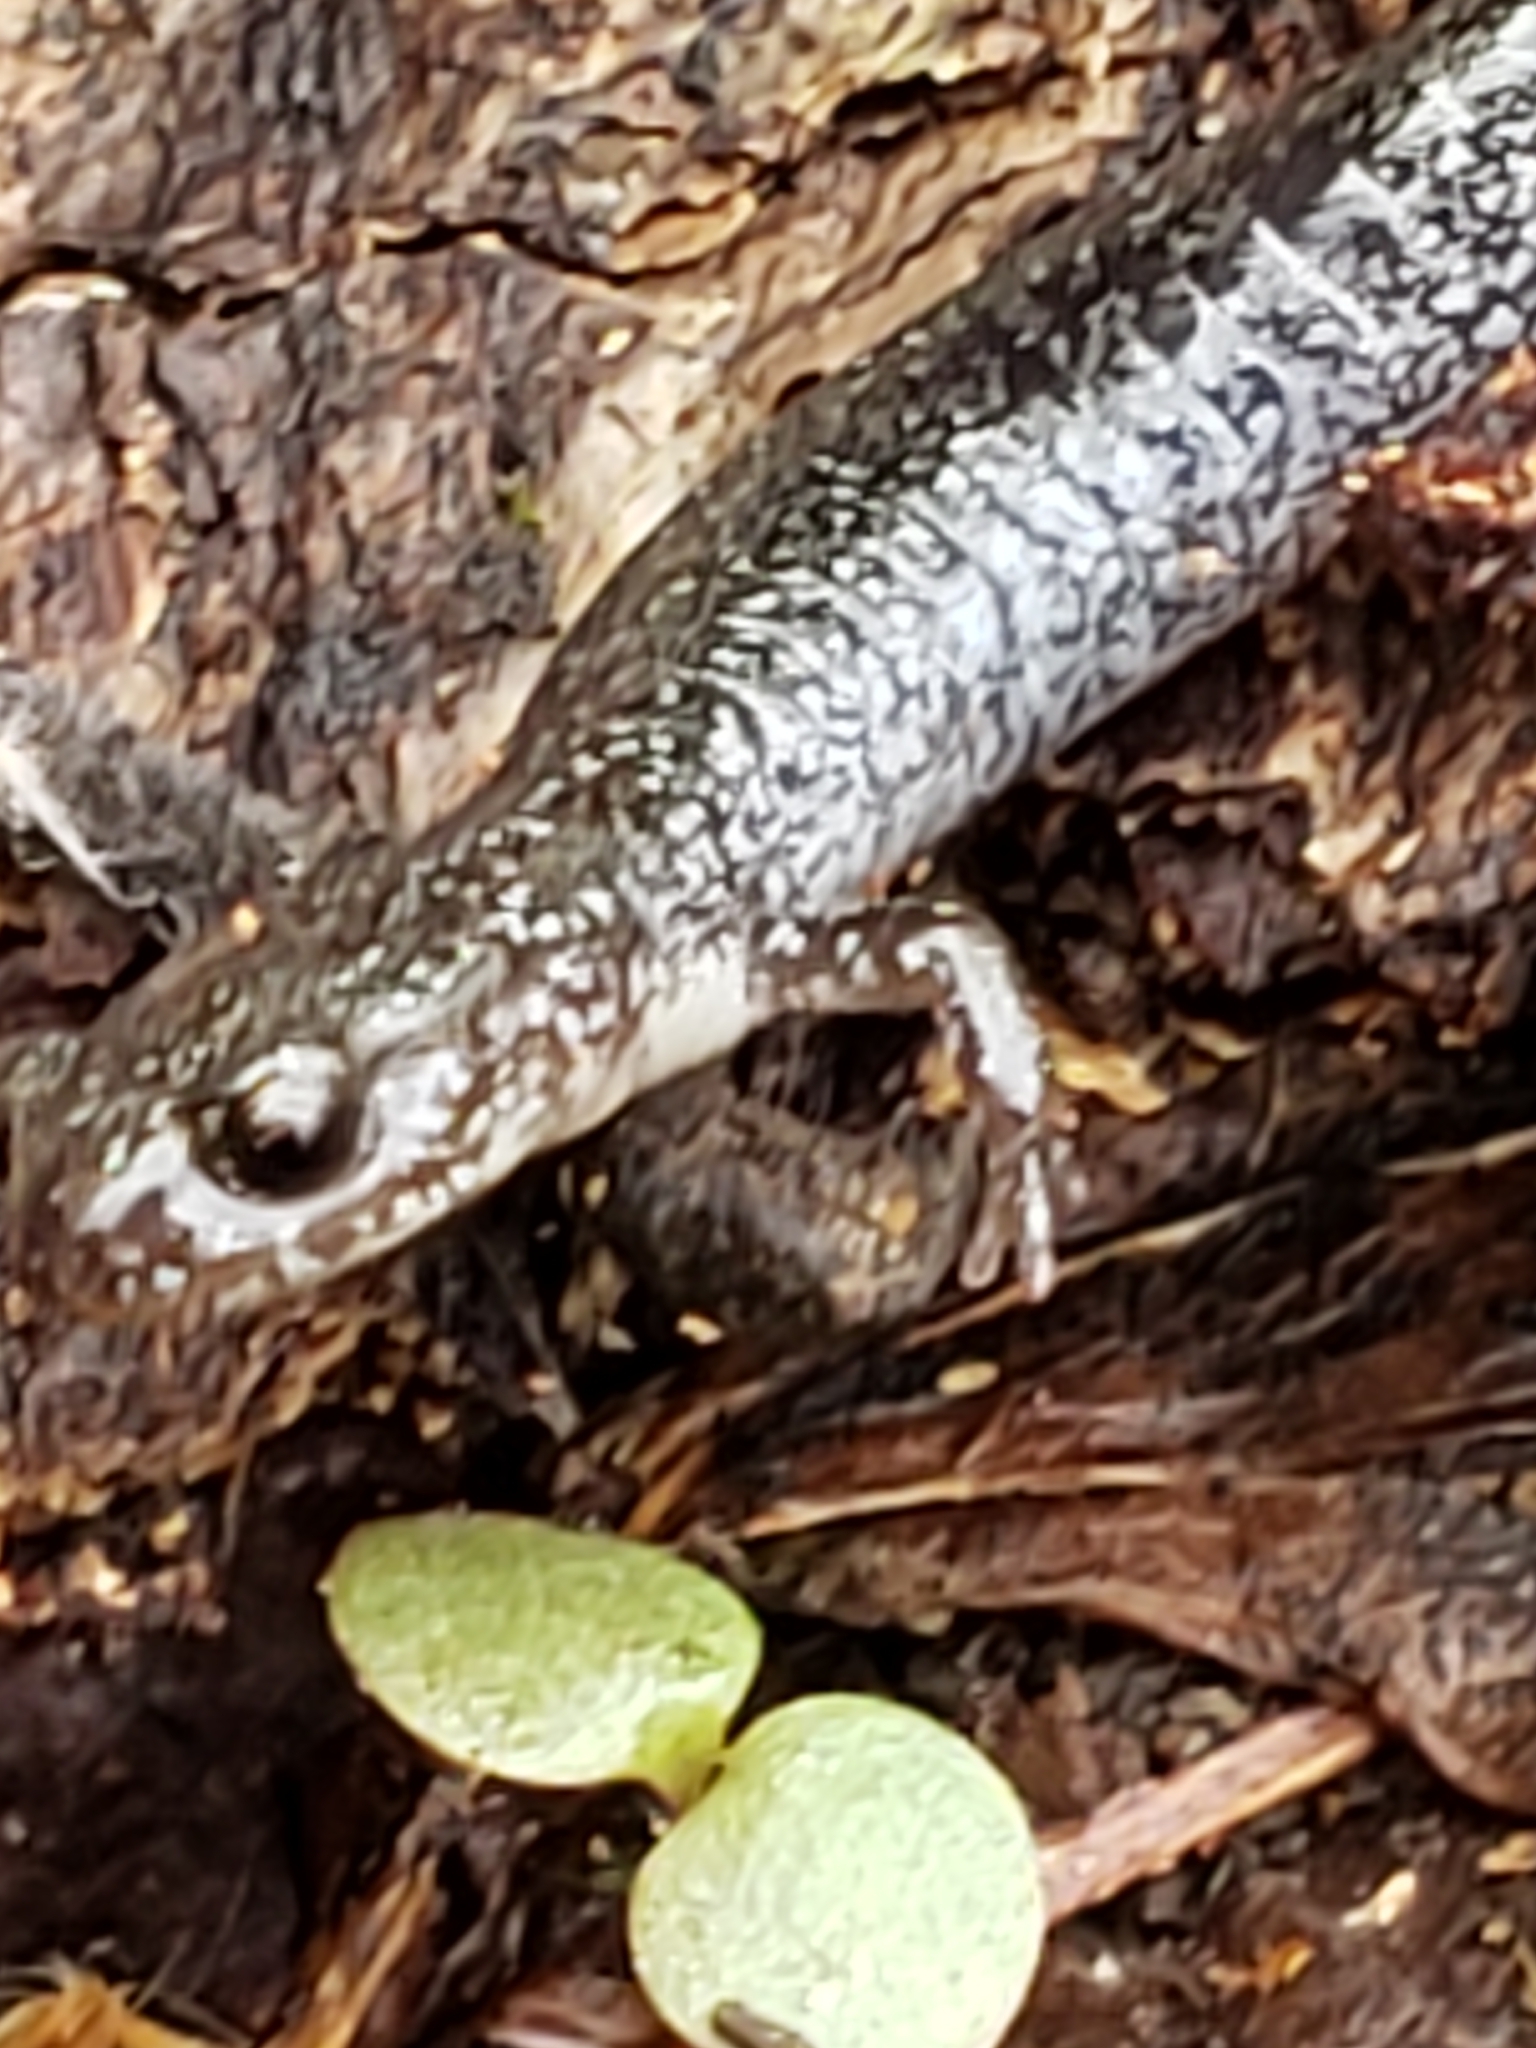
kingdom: Animalia
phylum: Chordata
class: Amphibia
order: Caudata
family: Plethodontidae
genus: Plethodon
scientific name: Plethodon cinereus
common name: Redback salamander
